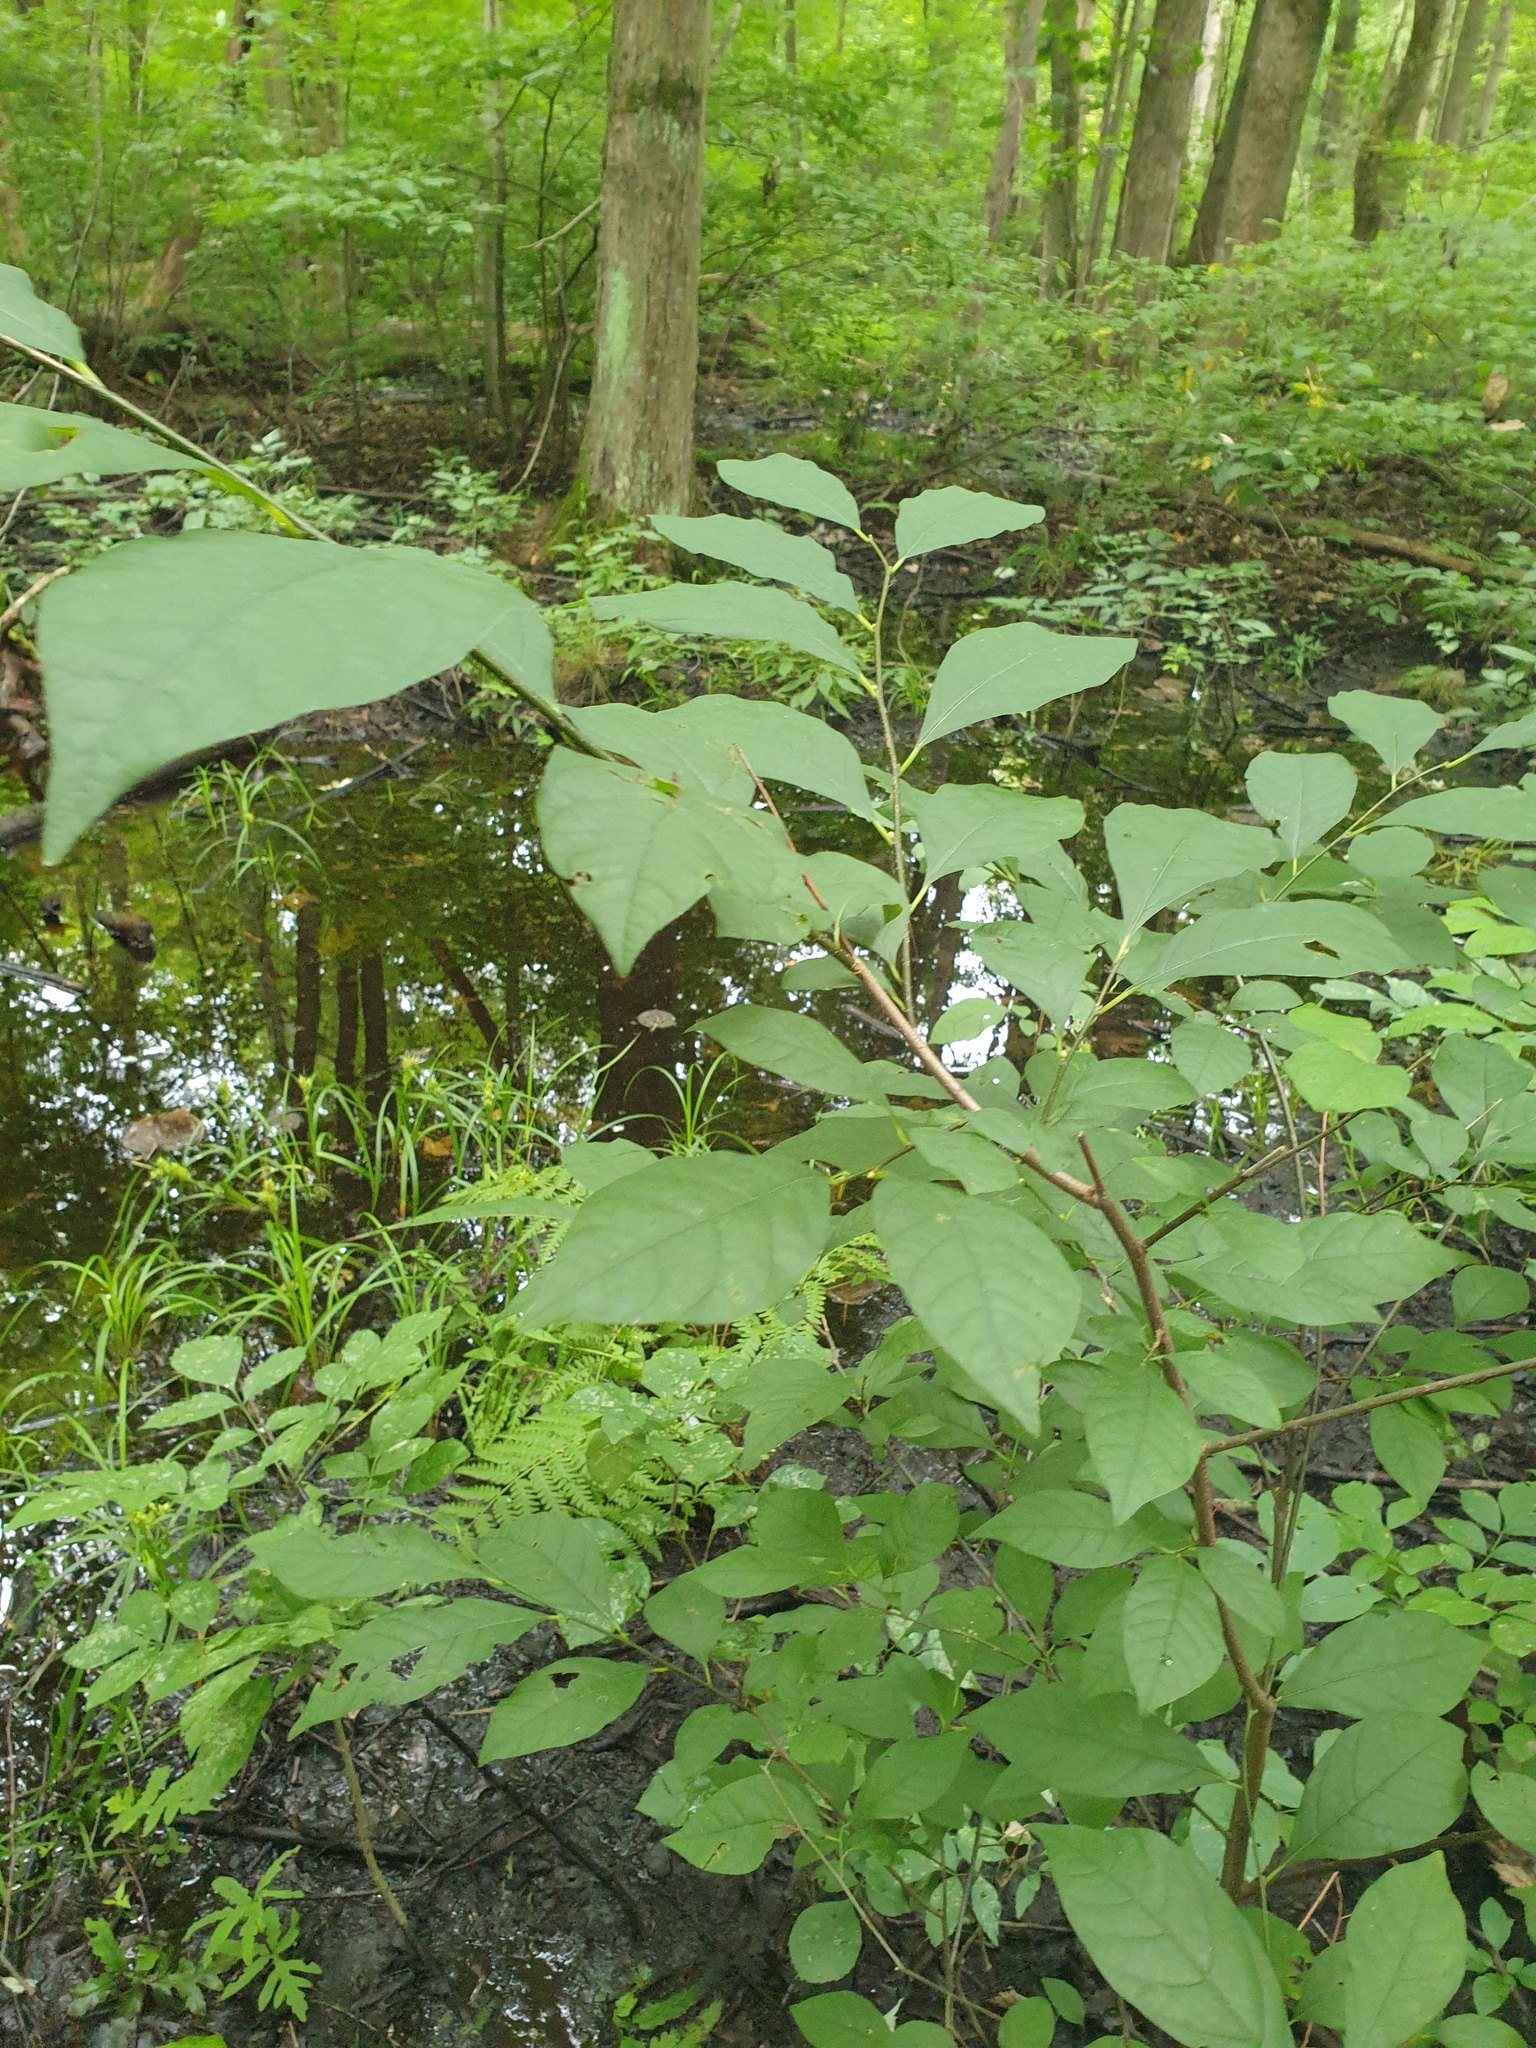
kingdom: Plantae
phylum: Tracheophyta
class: Magnoliopsida
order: Laurales
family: Lauraceae
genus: Lindera
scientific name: Lindera benzoin
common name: Spicebush
